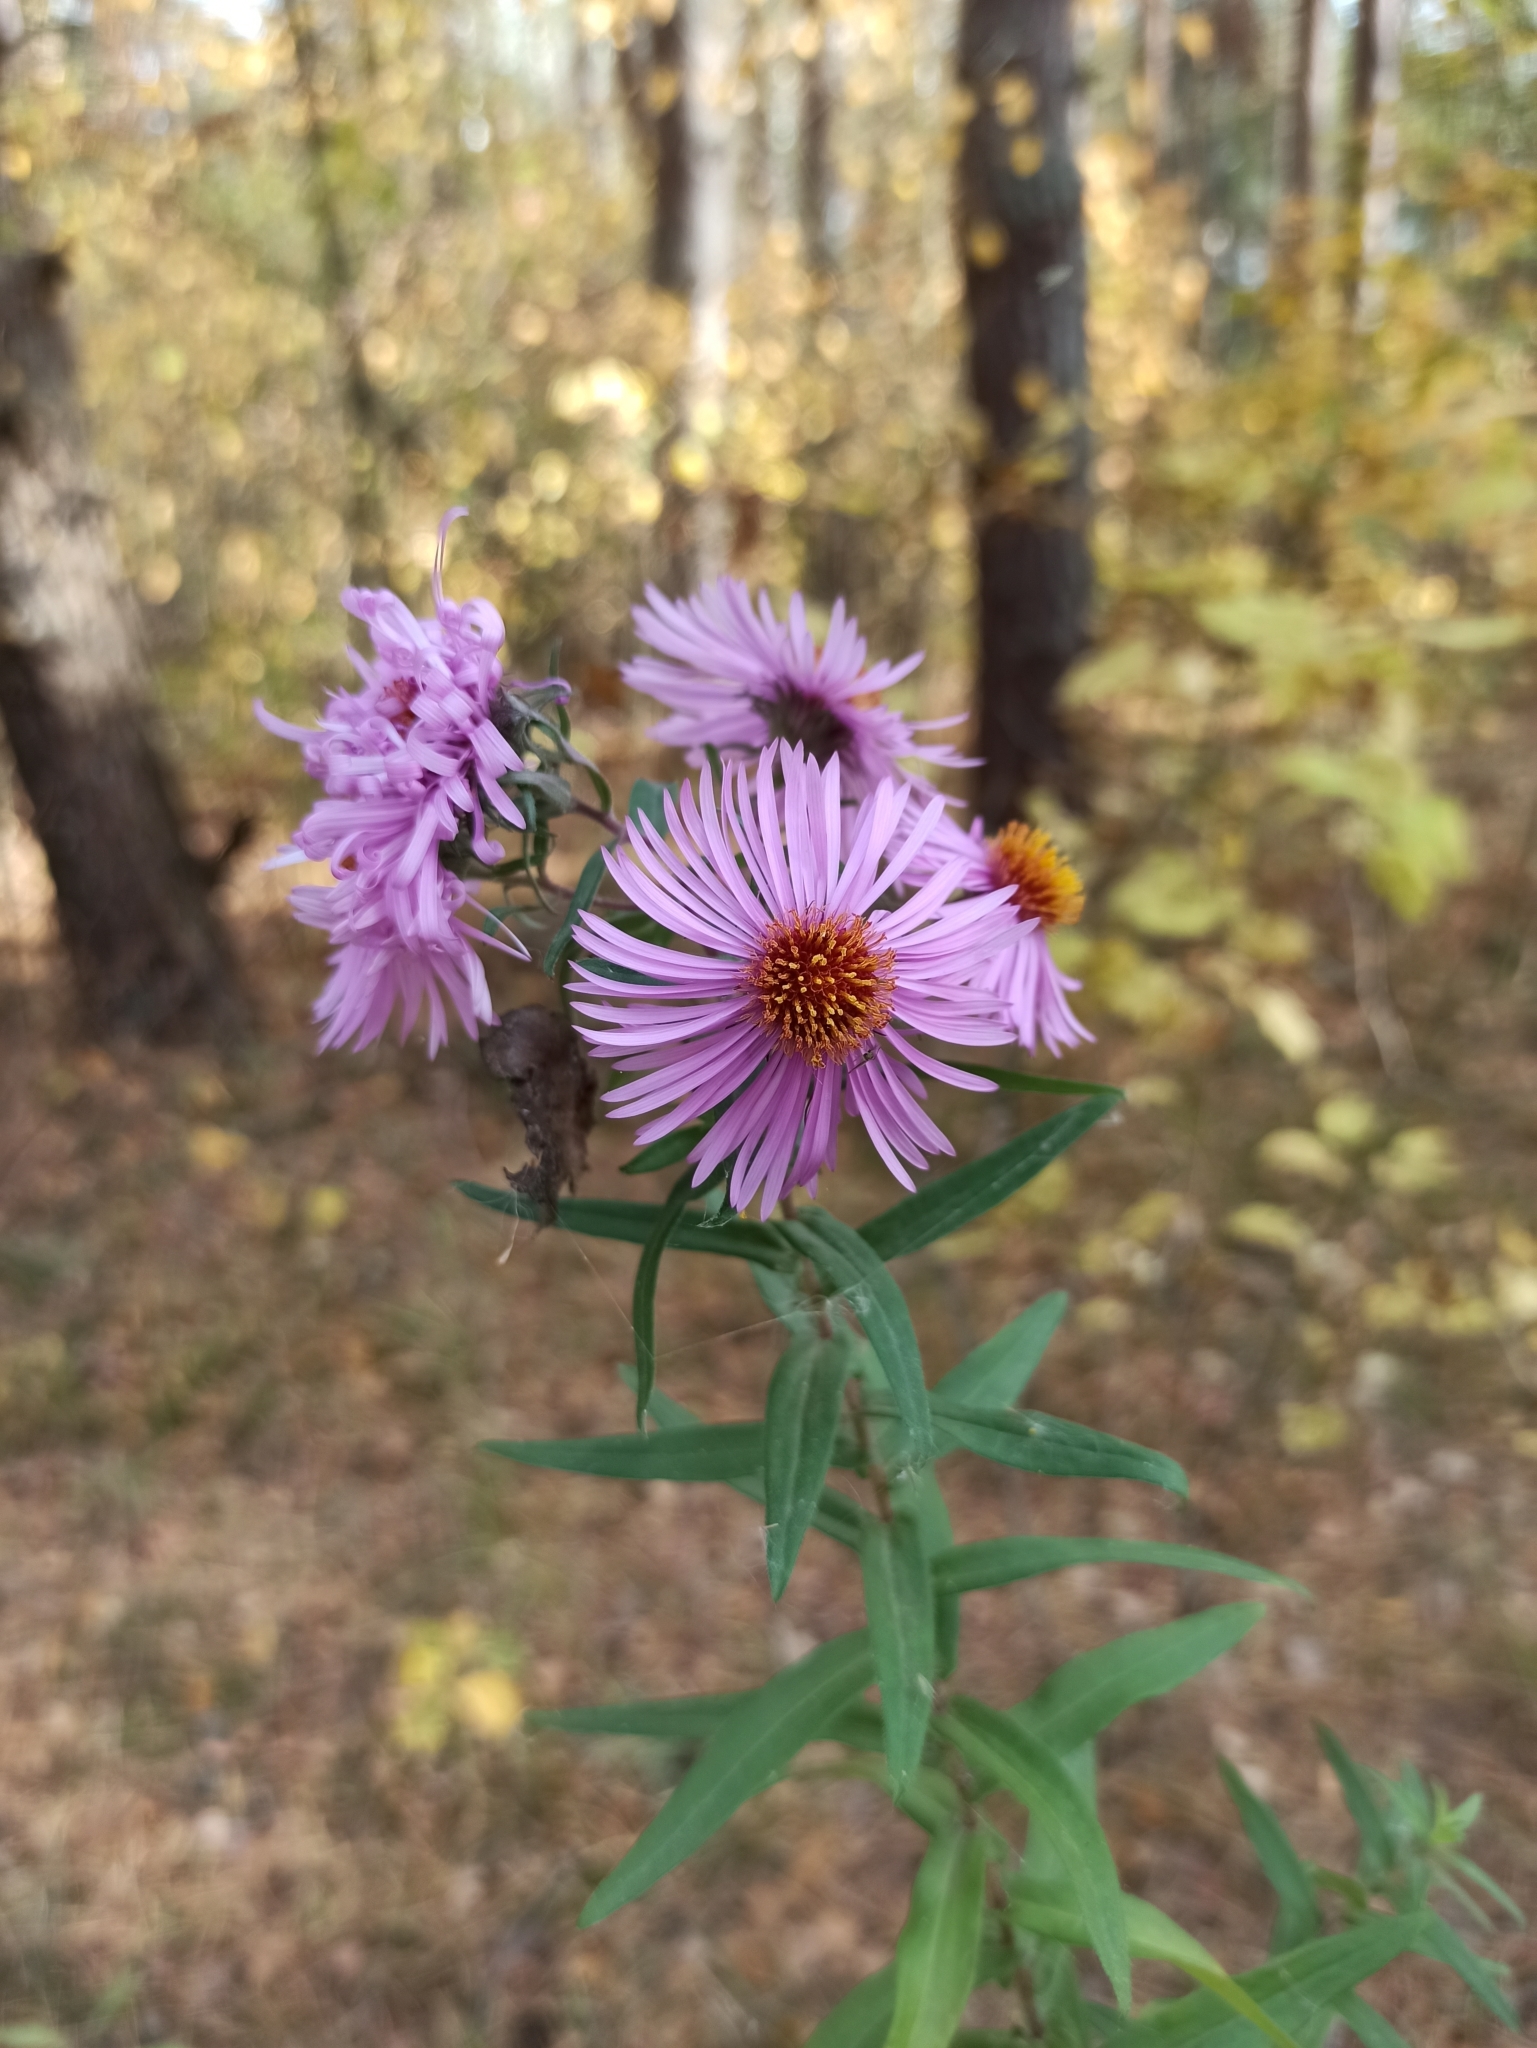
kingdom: Plantae
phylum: Tracheophyta
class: Magnoliopsida
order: Asterales
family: Asteraceae
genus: Symphyotrichum
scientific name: Symphyotrichum novae-angliae
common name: Michaelmas daisy
